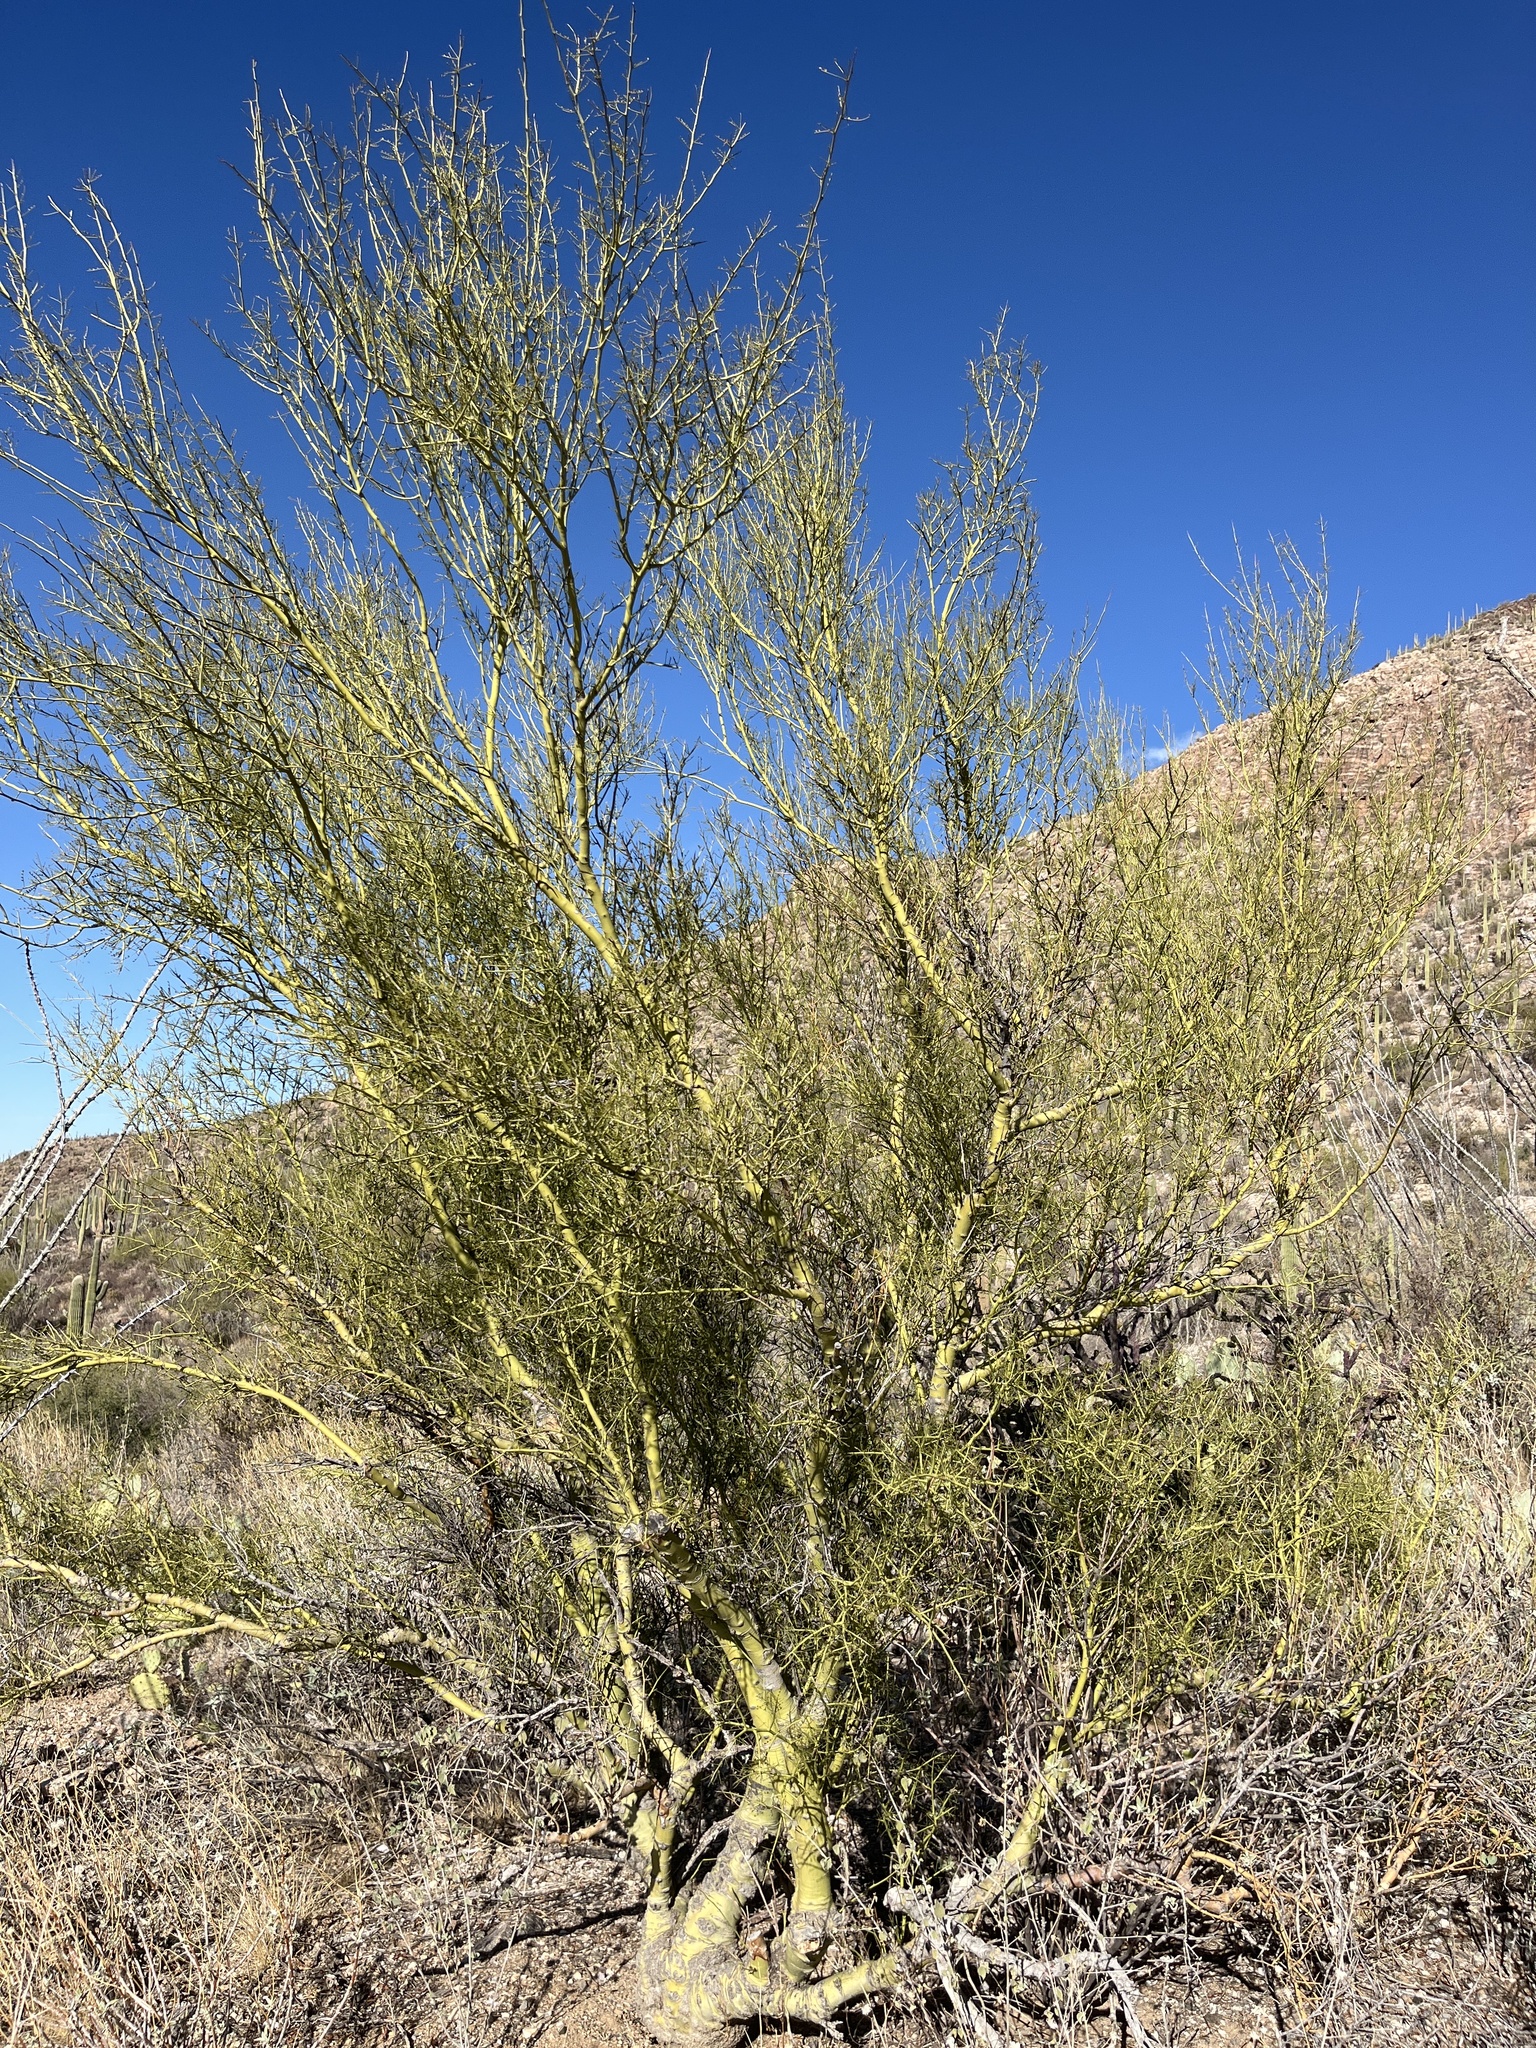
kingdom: Plantae
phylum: Tracheophyta
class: Magnoliopsida
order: Fabales
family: Fabaceae
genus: Parkinsonia
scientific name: Parkinsonia microphylla
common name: Yellow paloverde
